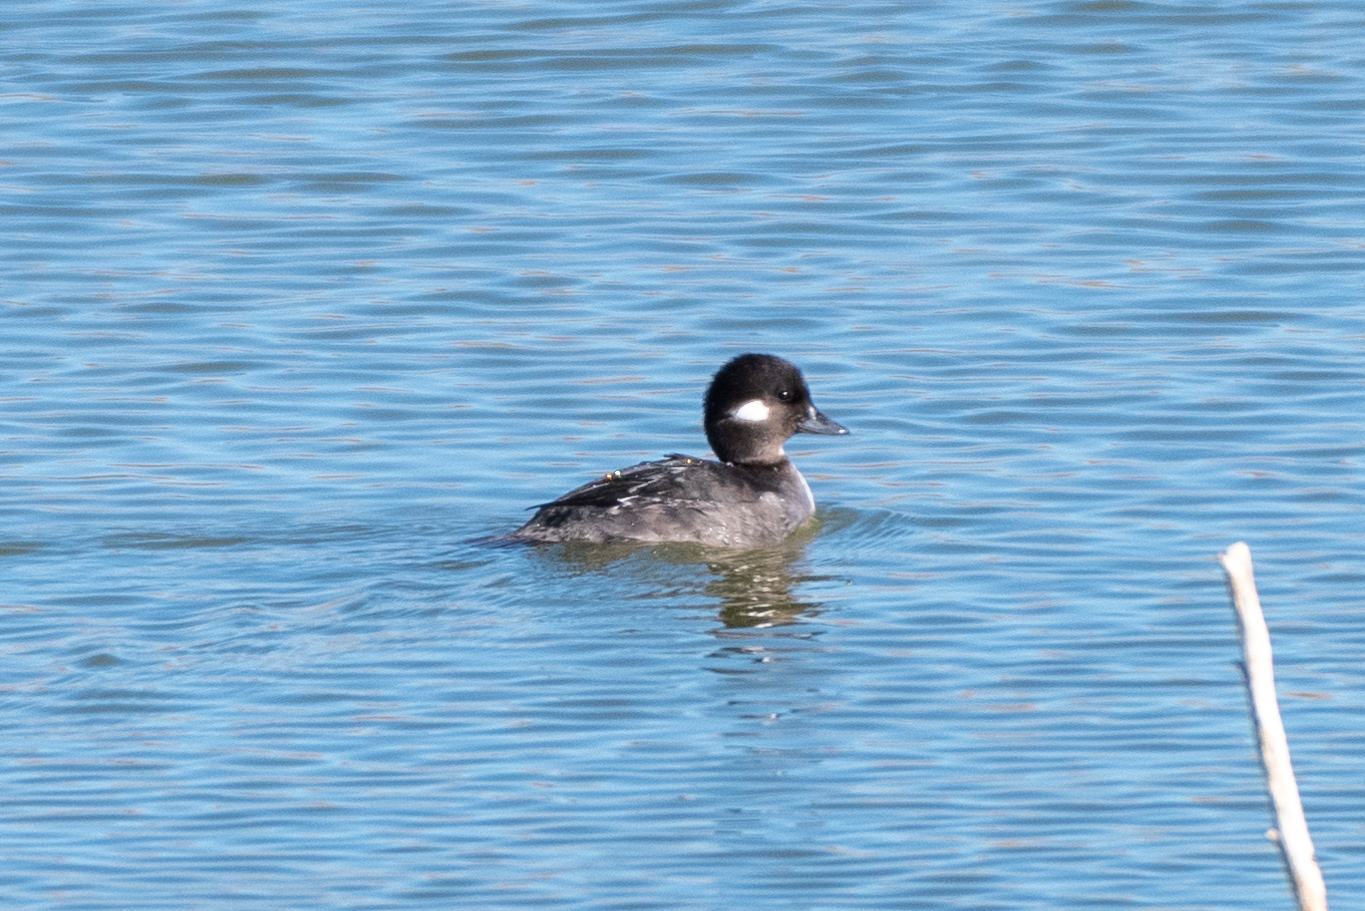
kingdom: Animalia
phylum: Chordata
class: Aves
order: Anseriformes
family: Anatidae
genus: Bucephala
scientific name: Bucephala albeola
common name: Bufflehead
